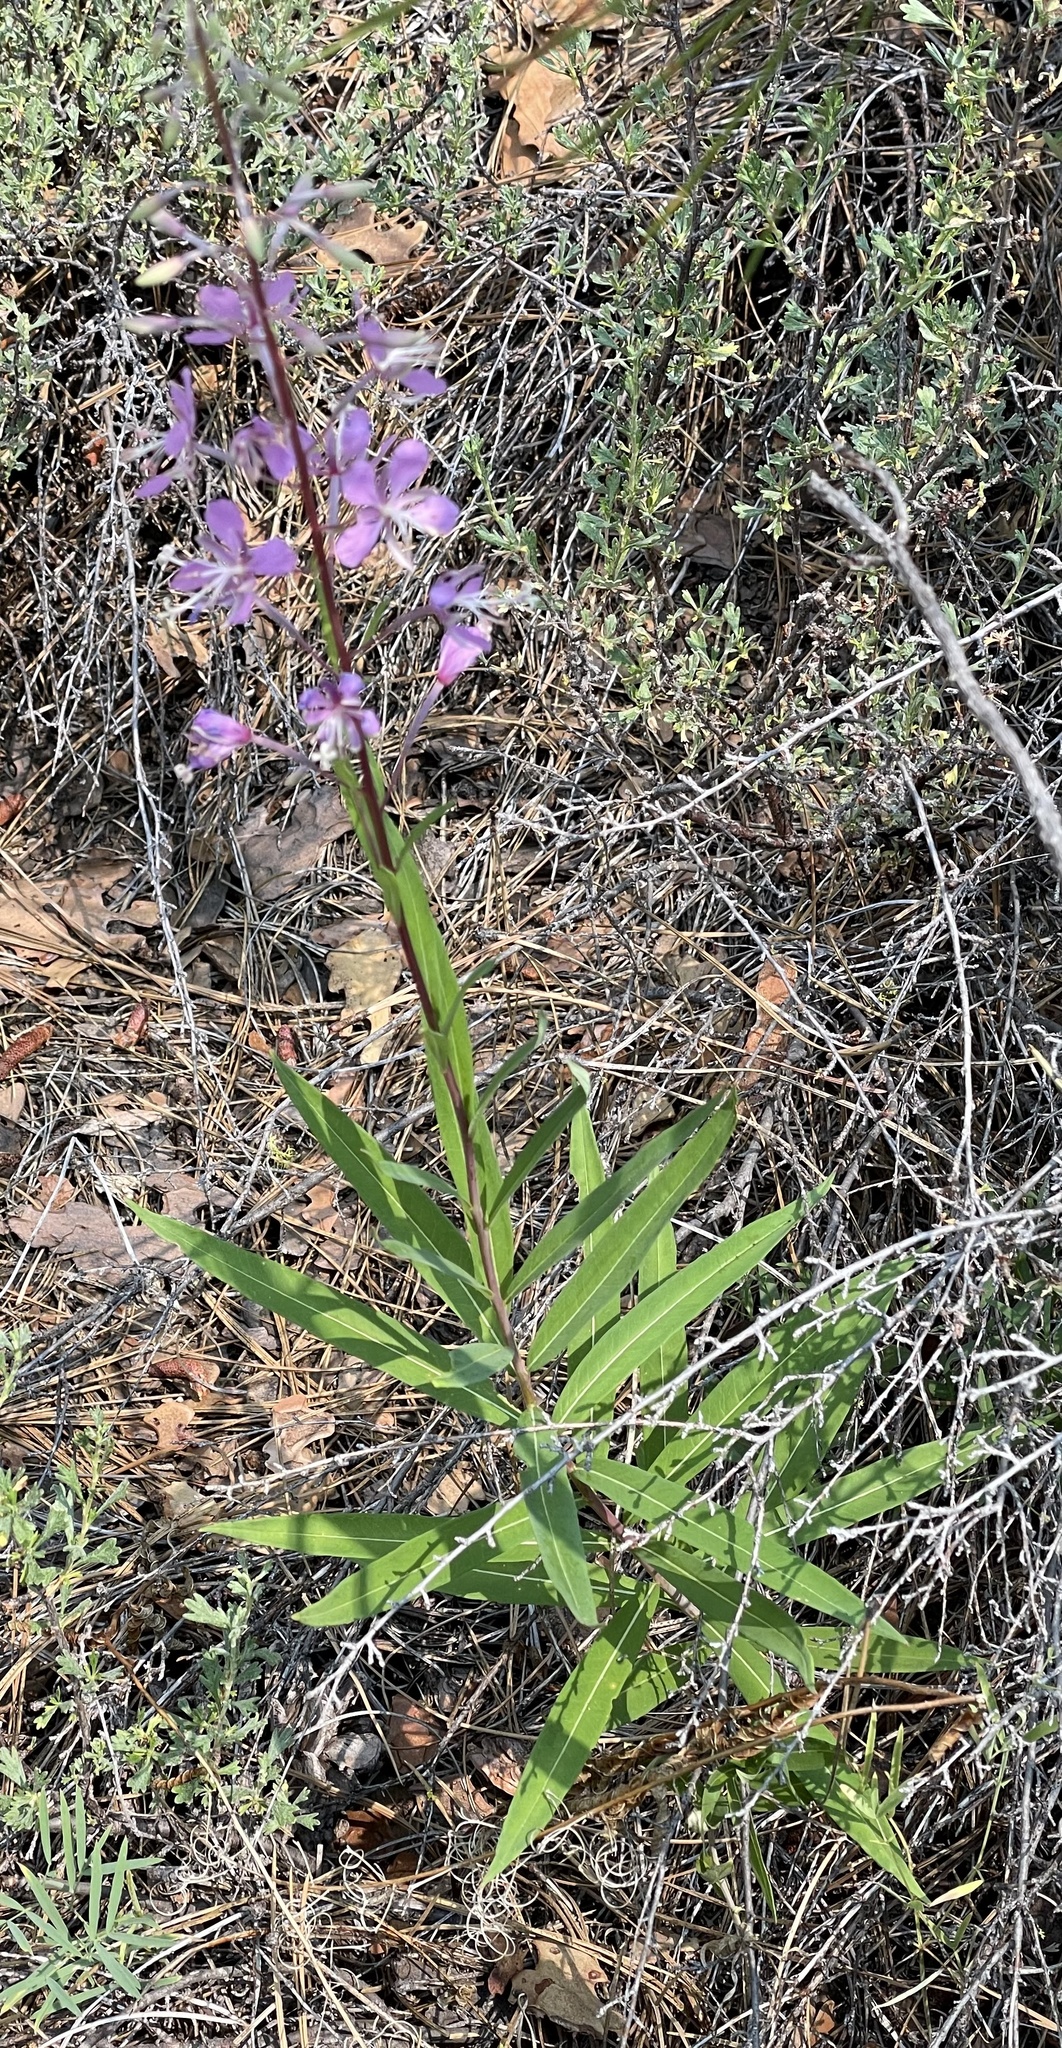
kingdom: Plantae
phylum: Tracheophyta
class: Magnoliopsida
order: Myrtales
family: Onagraceae
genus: Chamaenerion
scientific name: Chamaenerion angustifolium
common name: Fireweed
